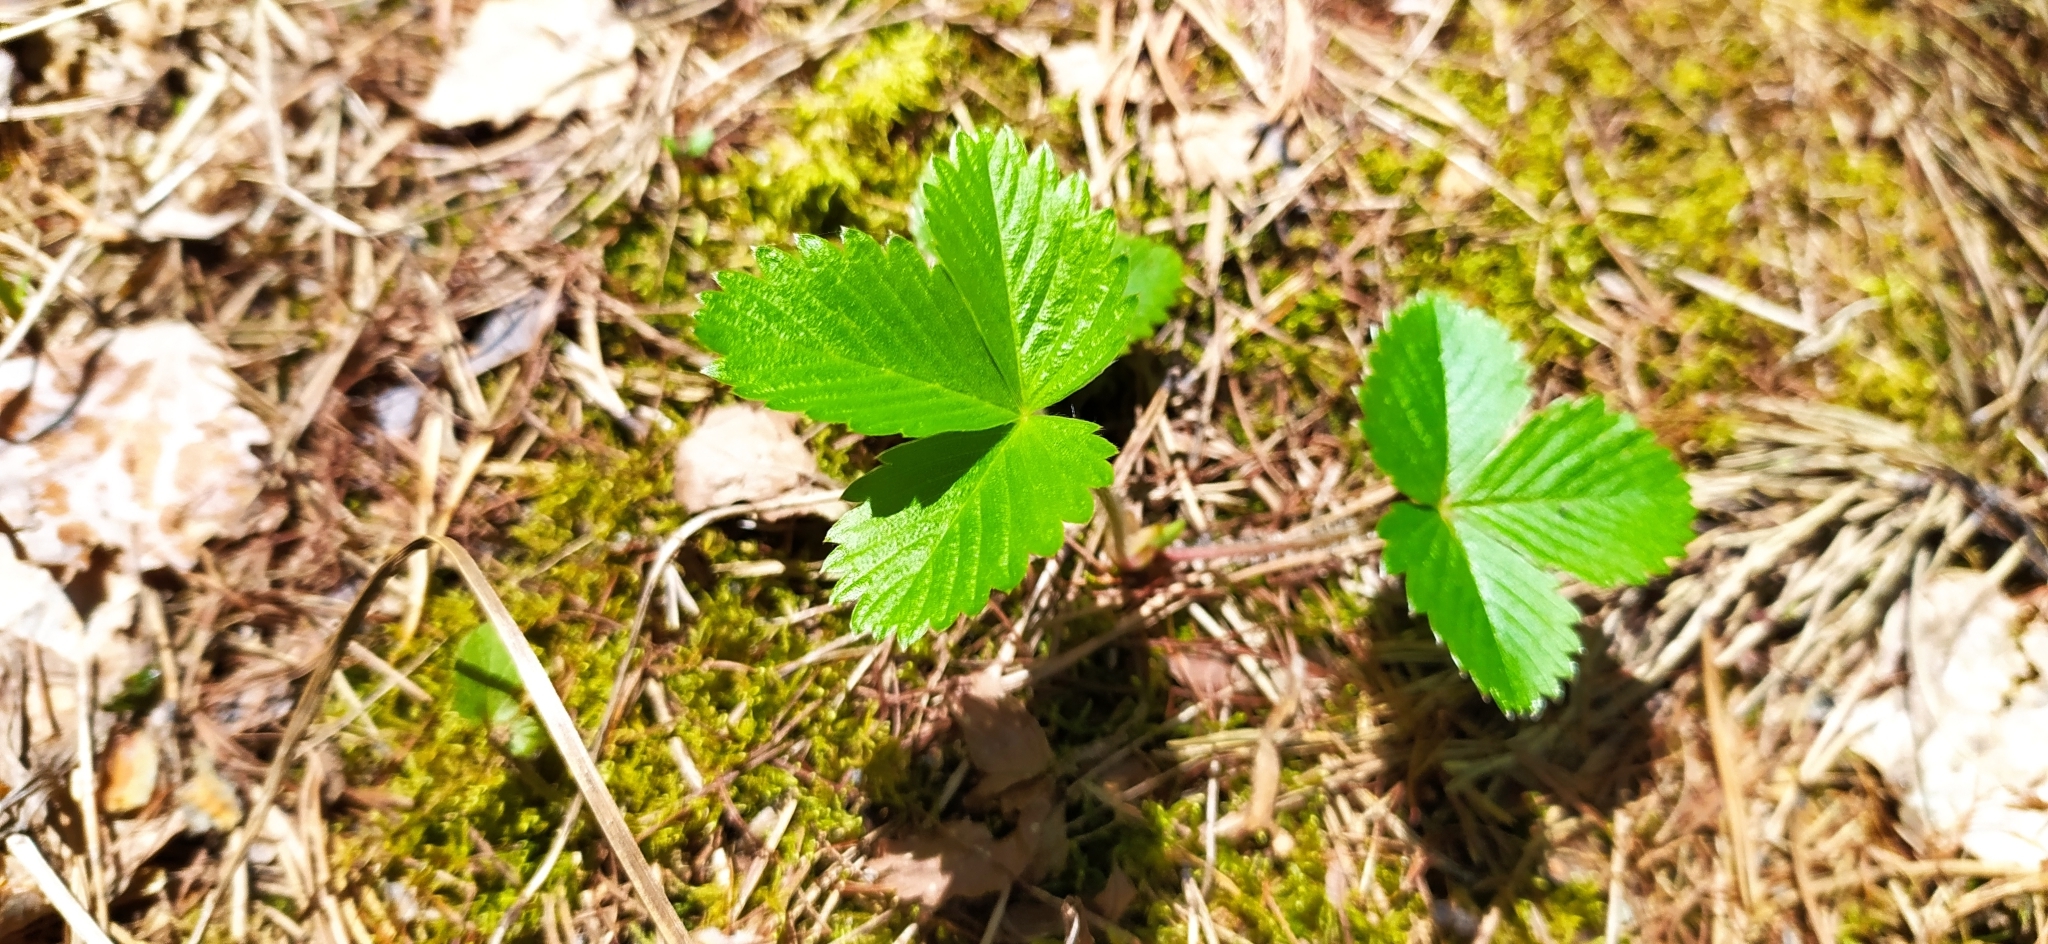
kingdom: Plantae
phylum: Tracheophyta
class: Magnoliopsida
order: Rosales
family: Rosaceae
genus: Fragaria
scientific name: Fragaria vesca
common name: Wild strawberry
